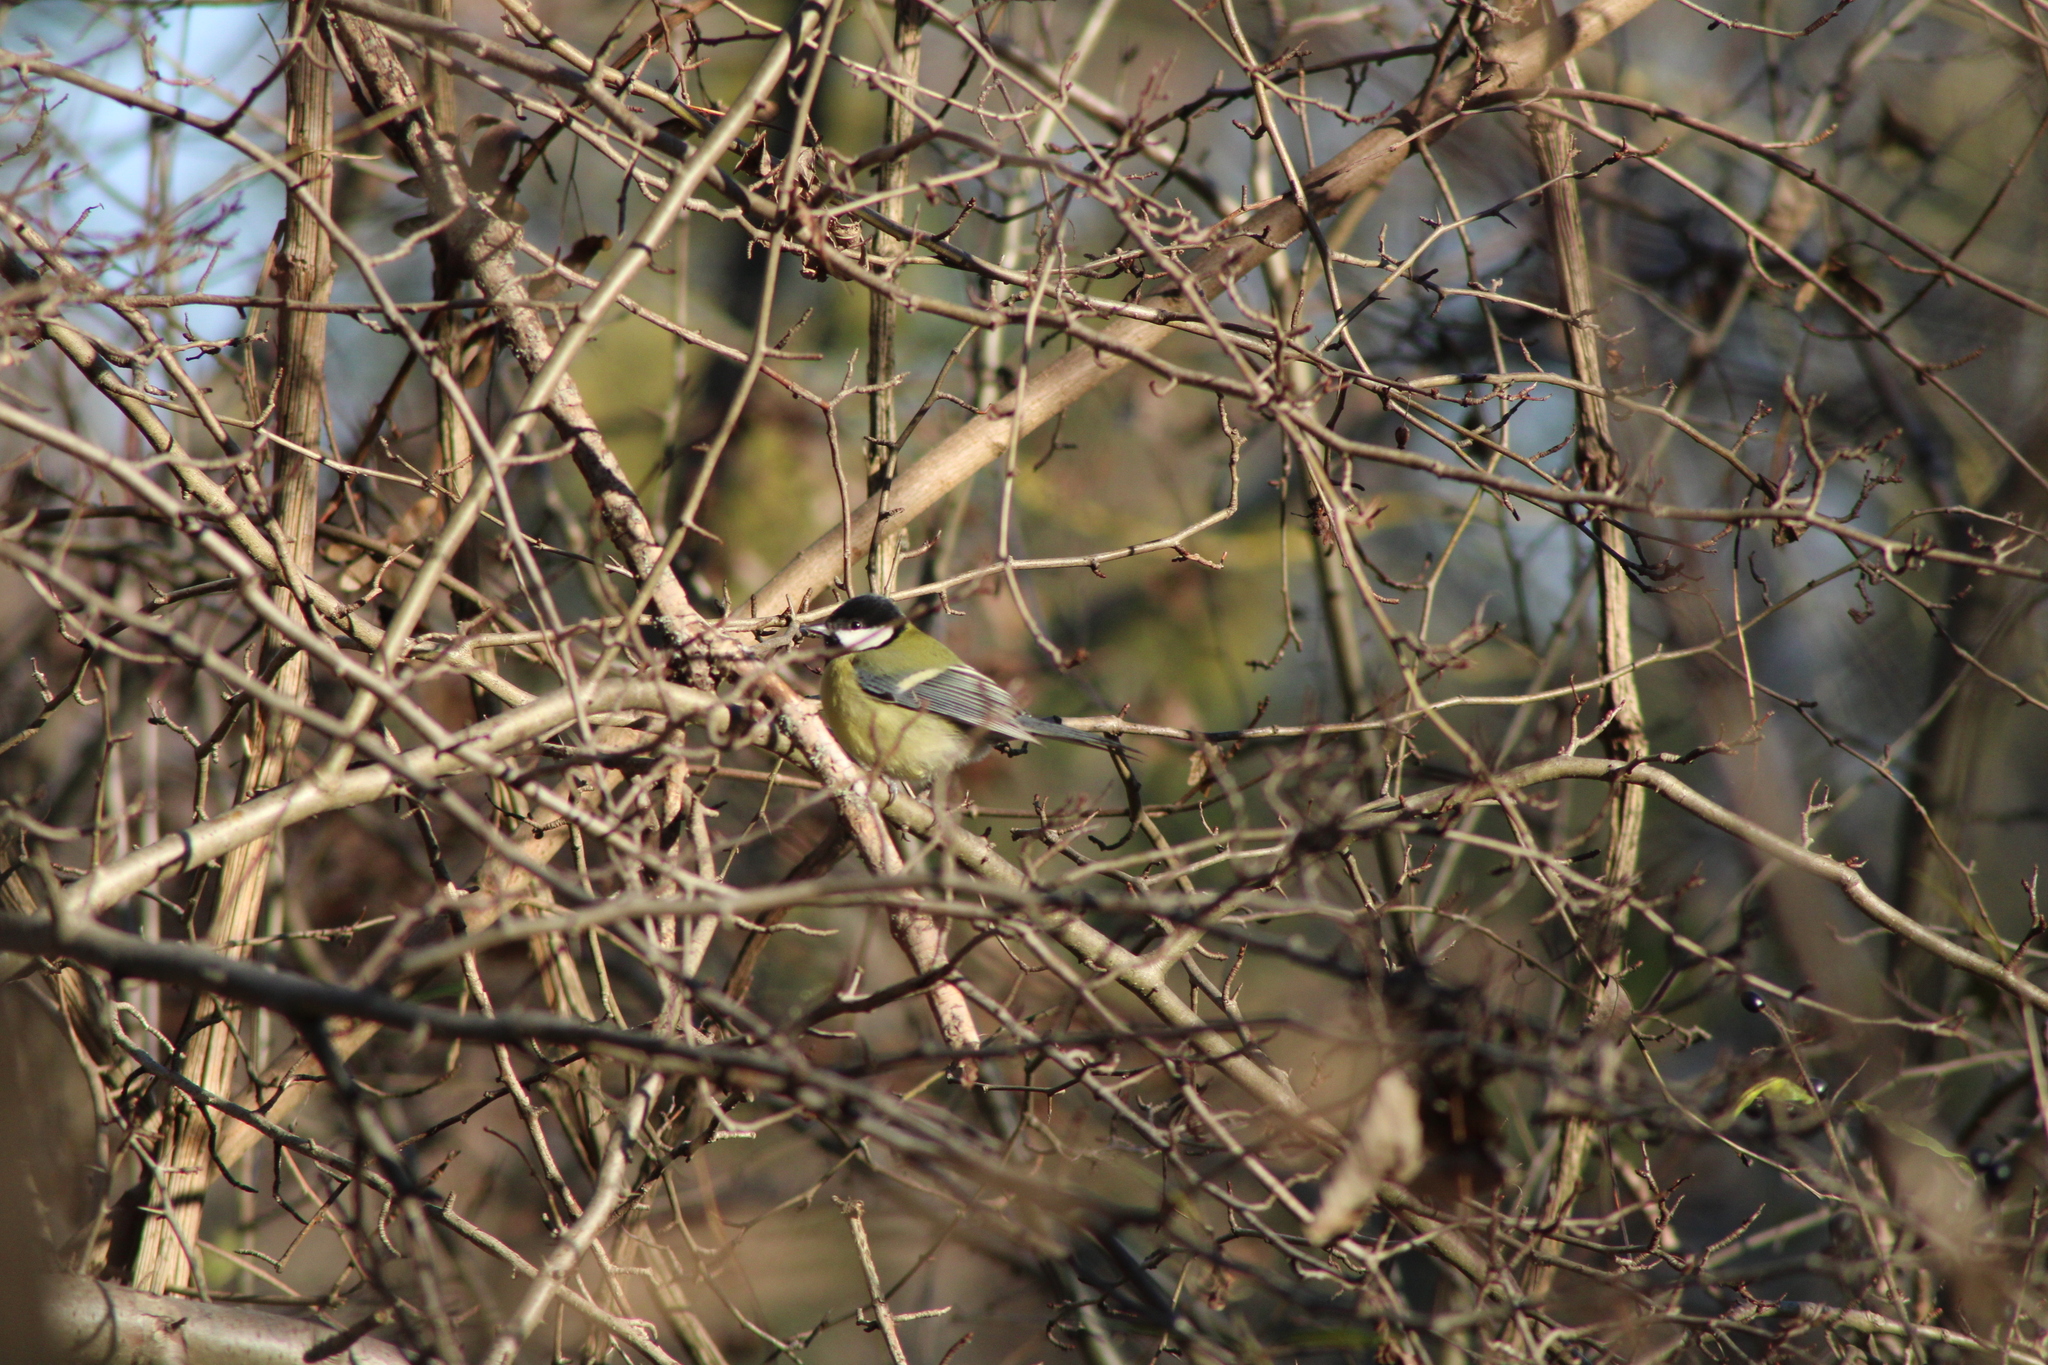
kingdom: Animalia
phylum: Chordata
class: Aves
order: Passeriformes
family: Paridae
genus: Parus
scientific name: Parus major
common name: Great tit
